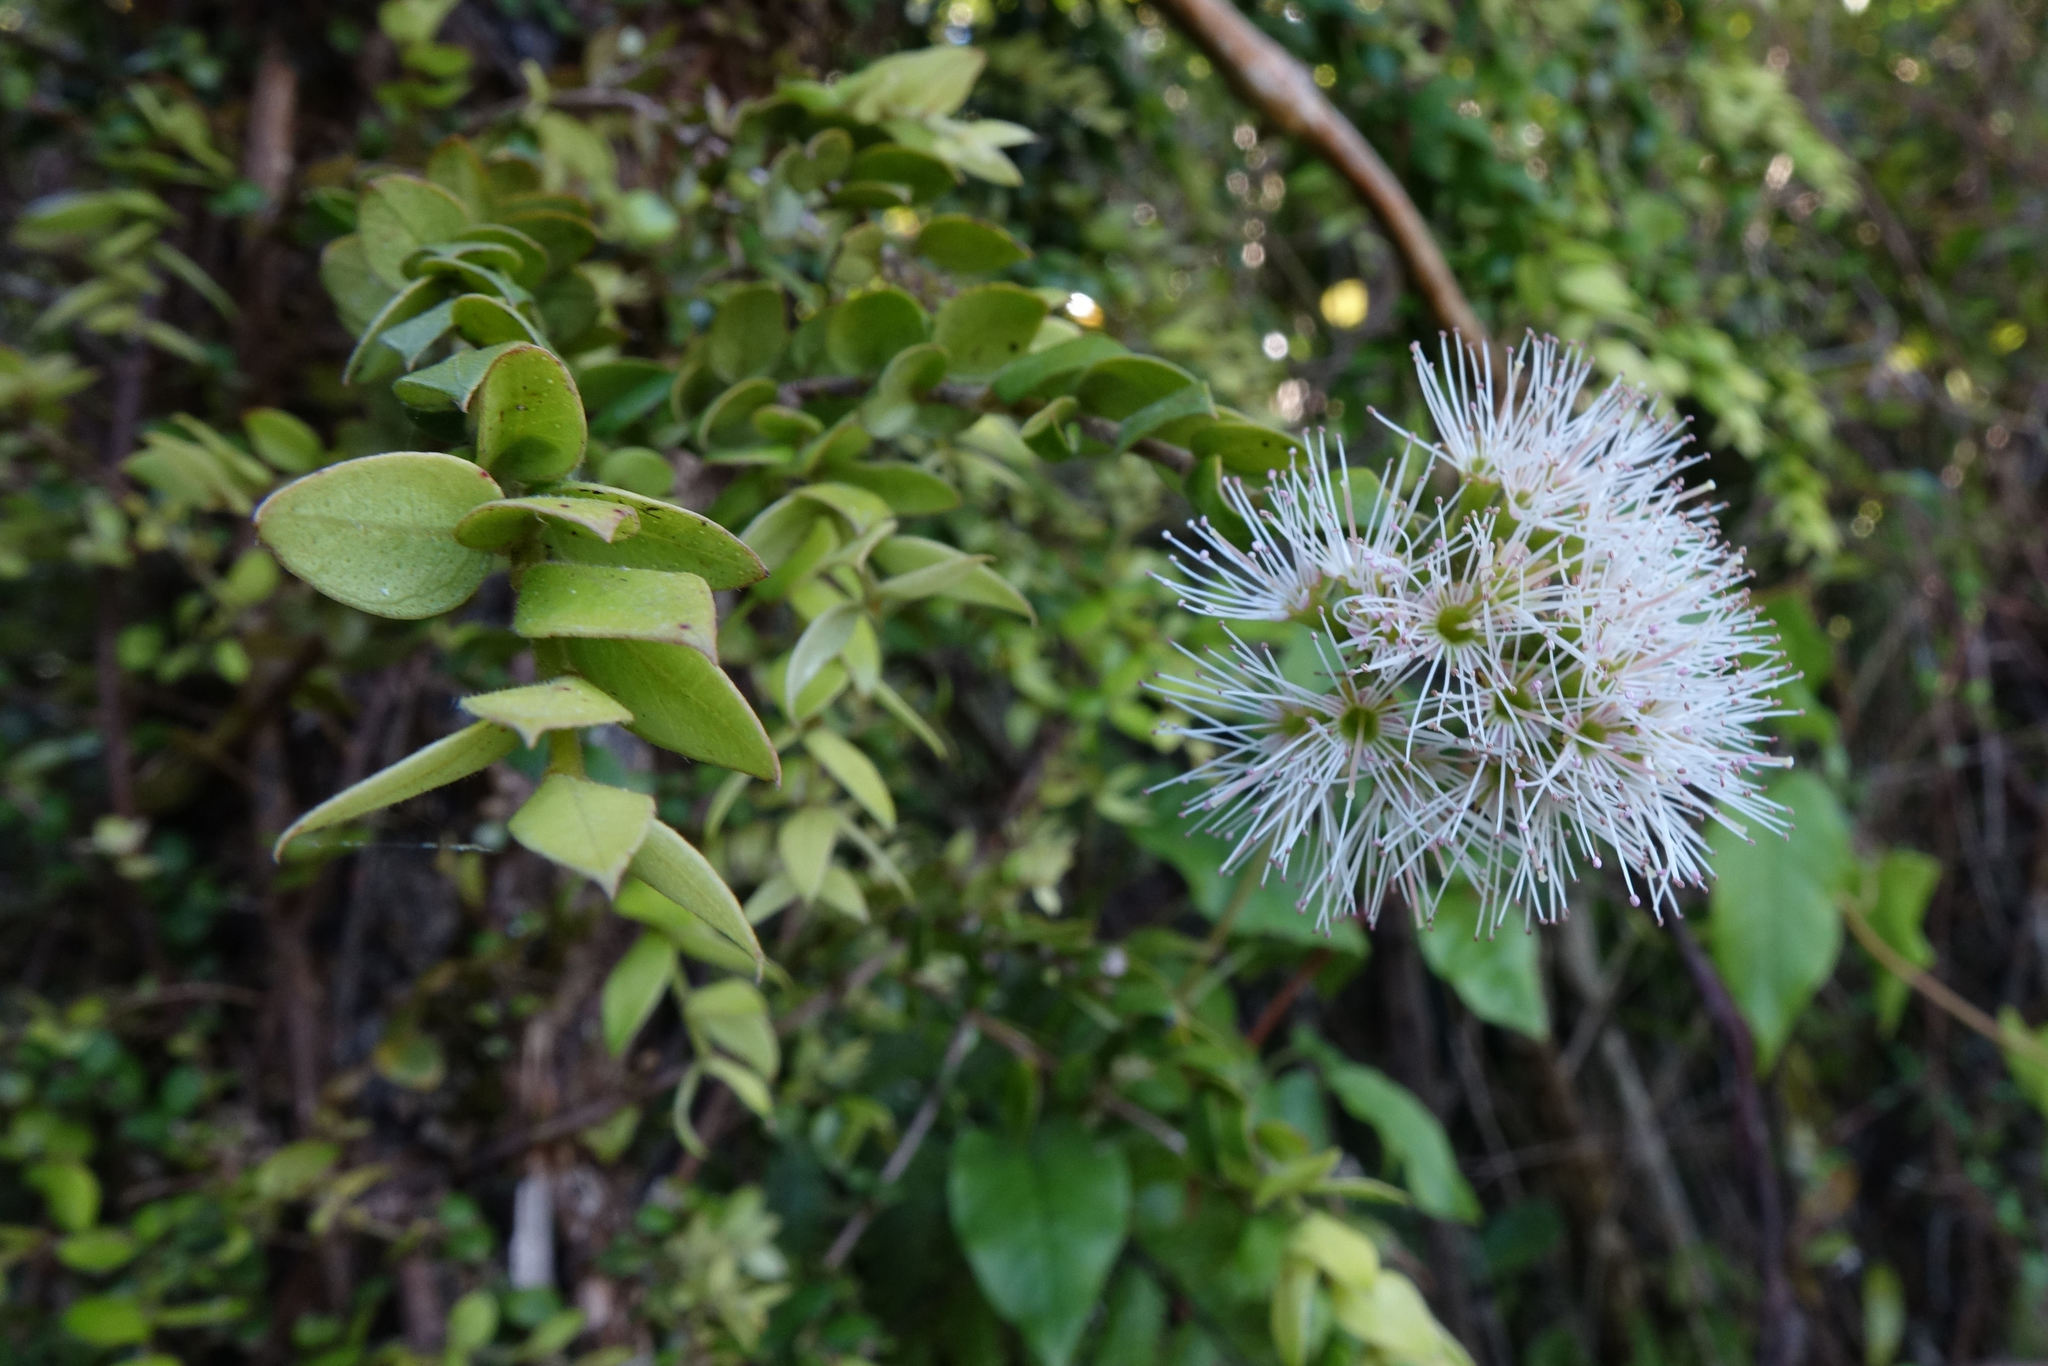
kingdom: Plantae
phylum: Tracheophyta
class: Magnoliopsida
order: Myrtales
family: Myrtaceae
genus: Metrosideros
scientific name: Metrosideros colensoi
